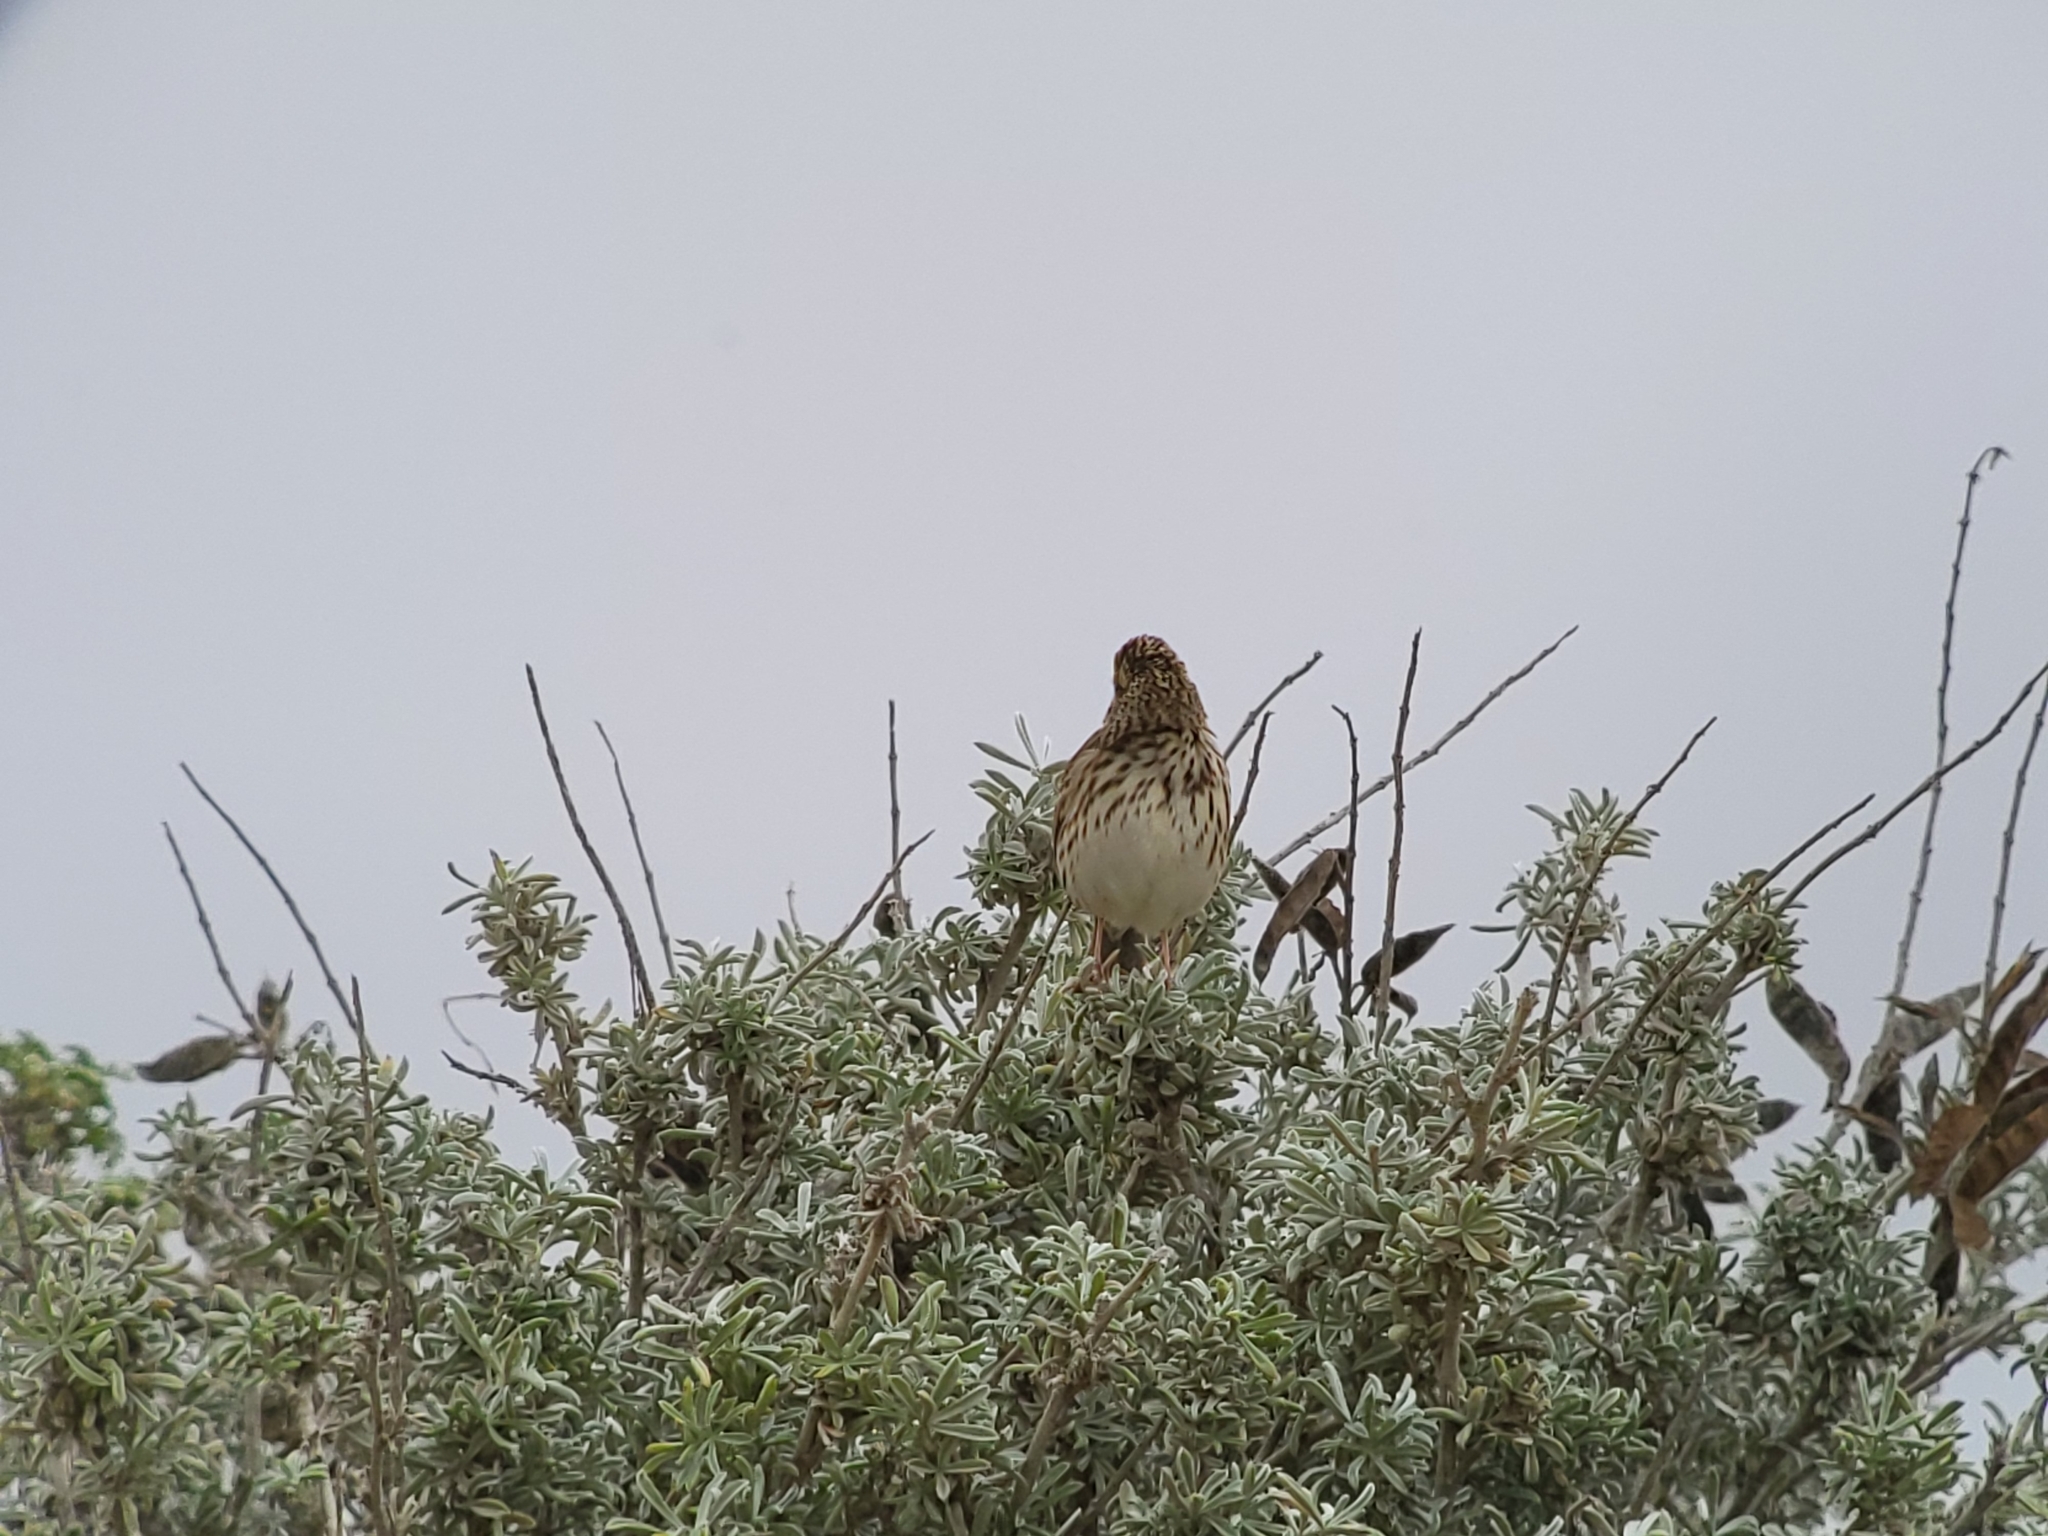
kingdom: Animalia
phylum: Chordata
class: Aves
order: Passeriformes
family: Passerellidae
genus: Passerculus
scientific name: Passerculus sandwichensis
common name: Savannah sparrow
